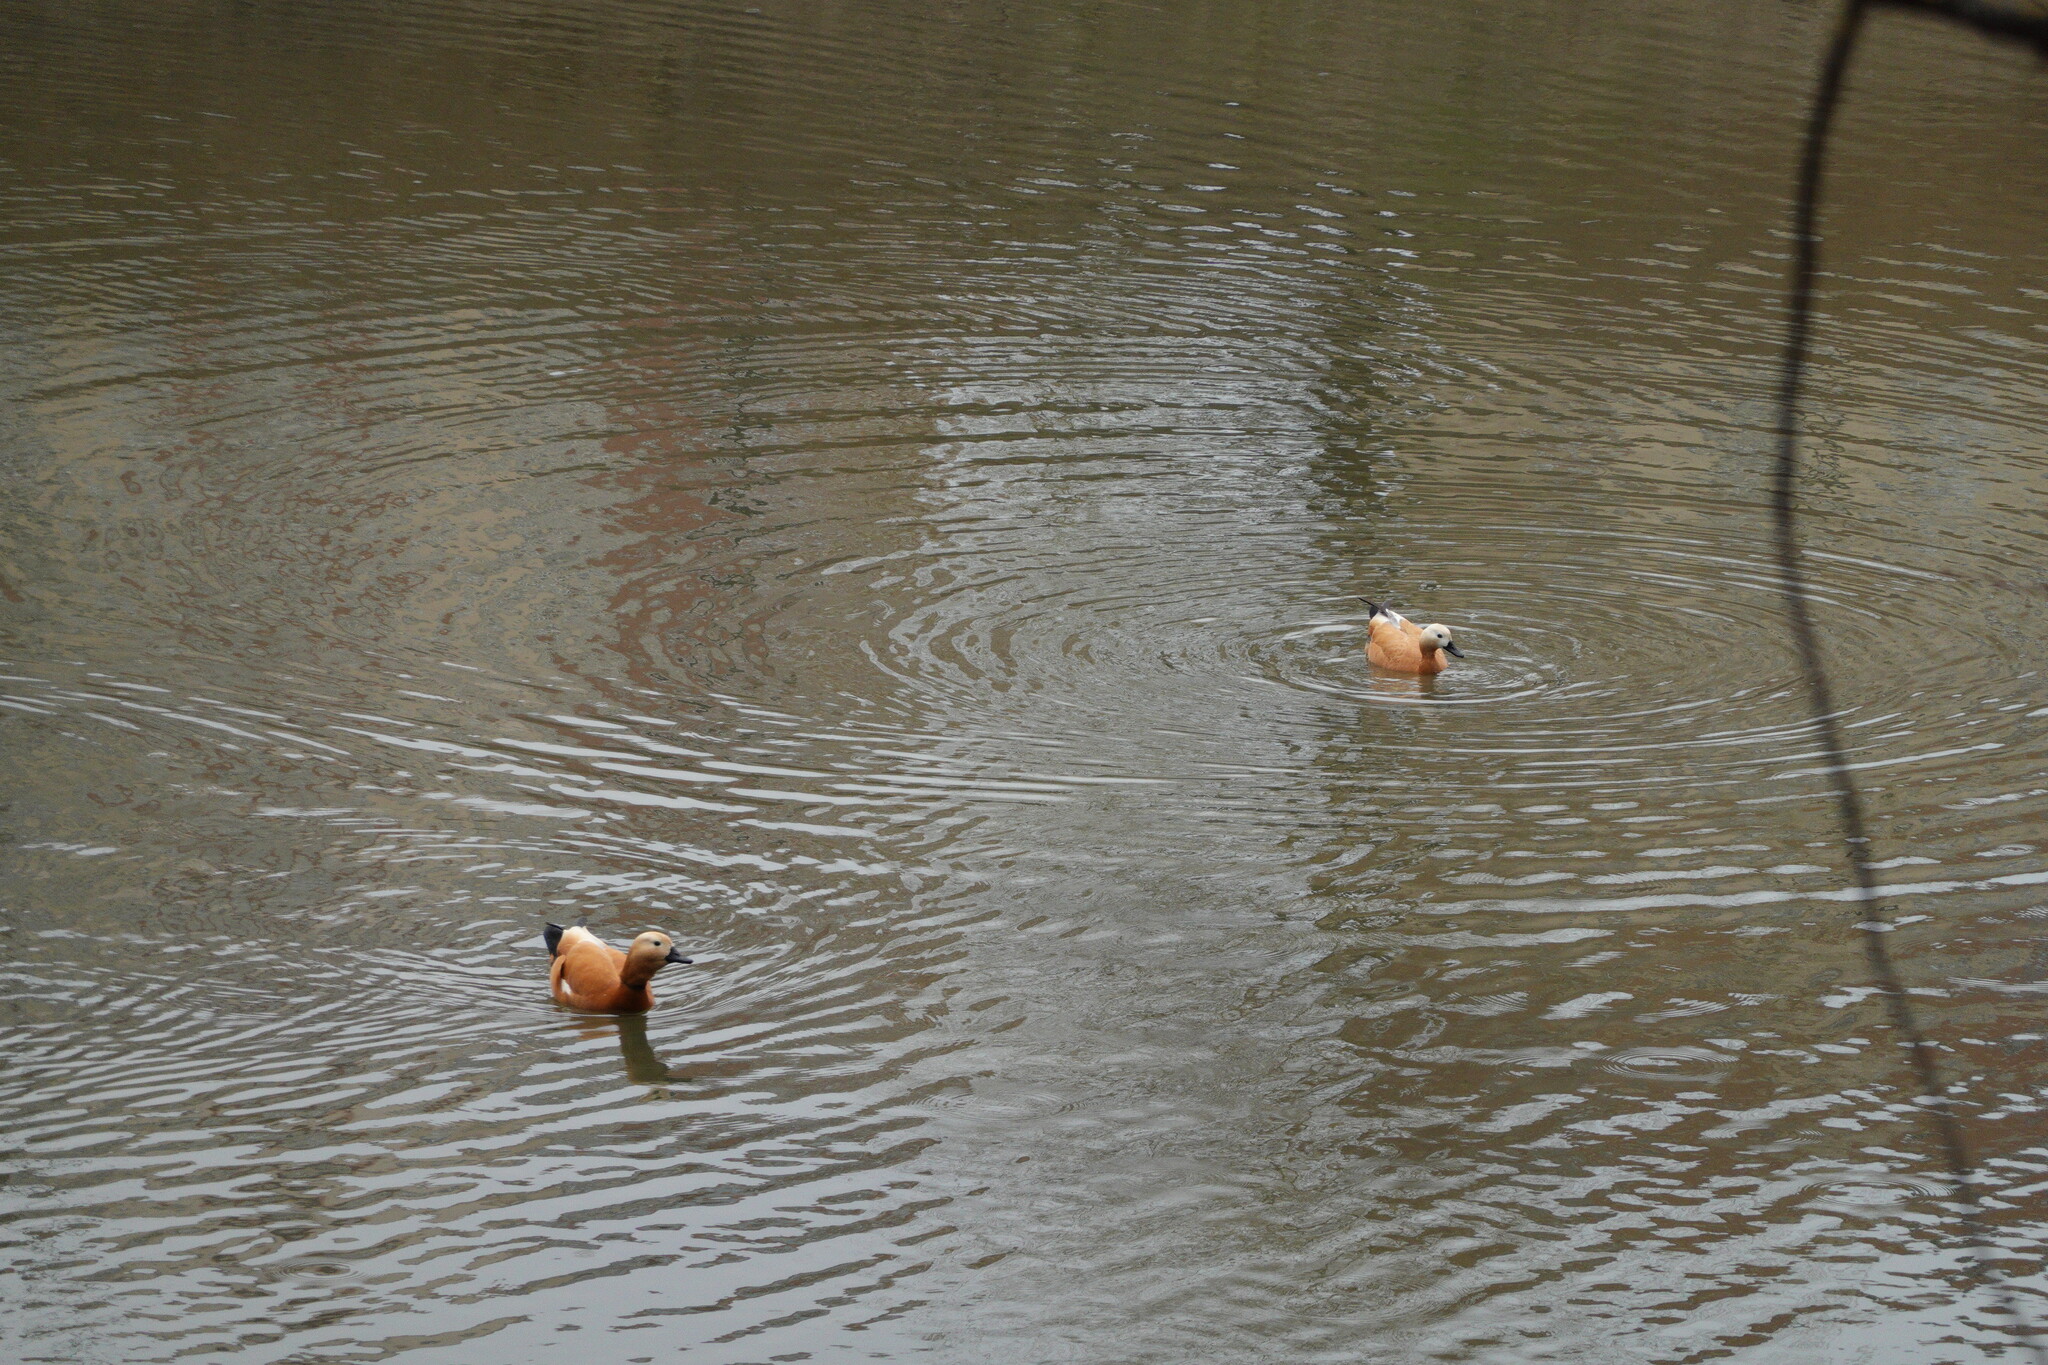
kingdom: Animalia
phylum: Chordata
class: Aves
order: Anseriformes
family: Anatidae
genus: Tadorna
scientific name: Tadorna ferruginea
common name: Ruddy shelduck
